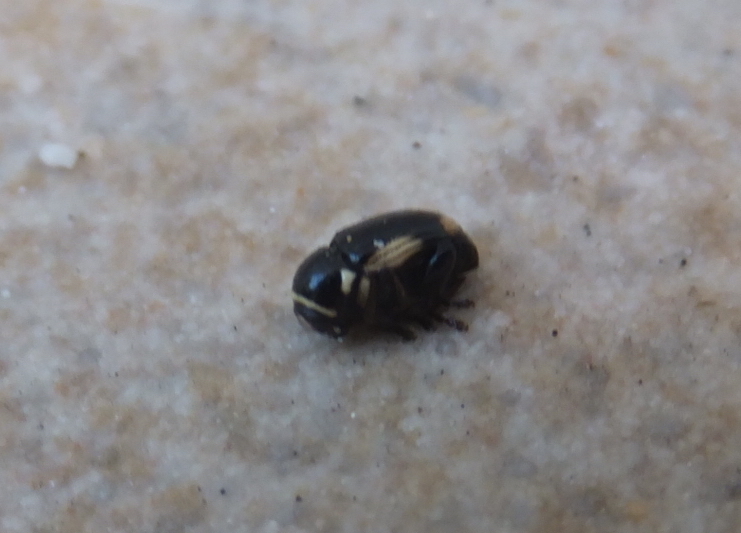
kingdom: Animalia
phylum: Arthropoda
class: Insecta
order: Coleoptera
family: Chrysomelidae
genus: Cryptocephalus
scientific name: Cryptocephalus moraei
